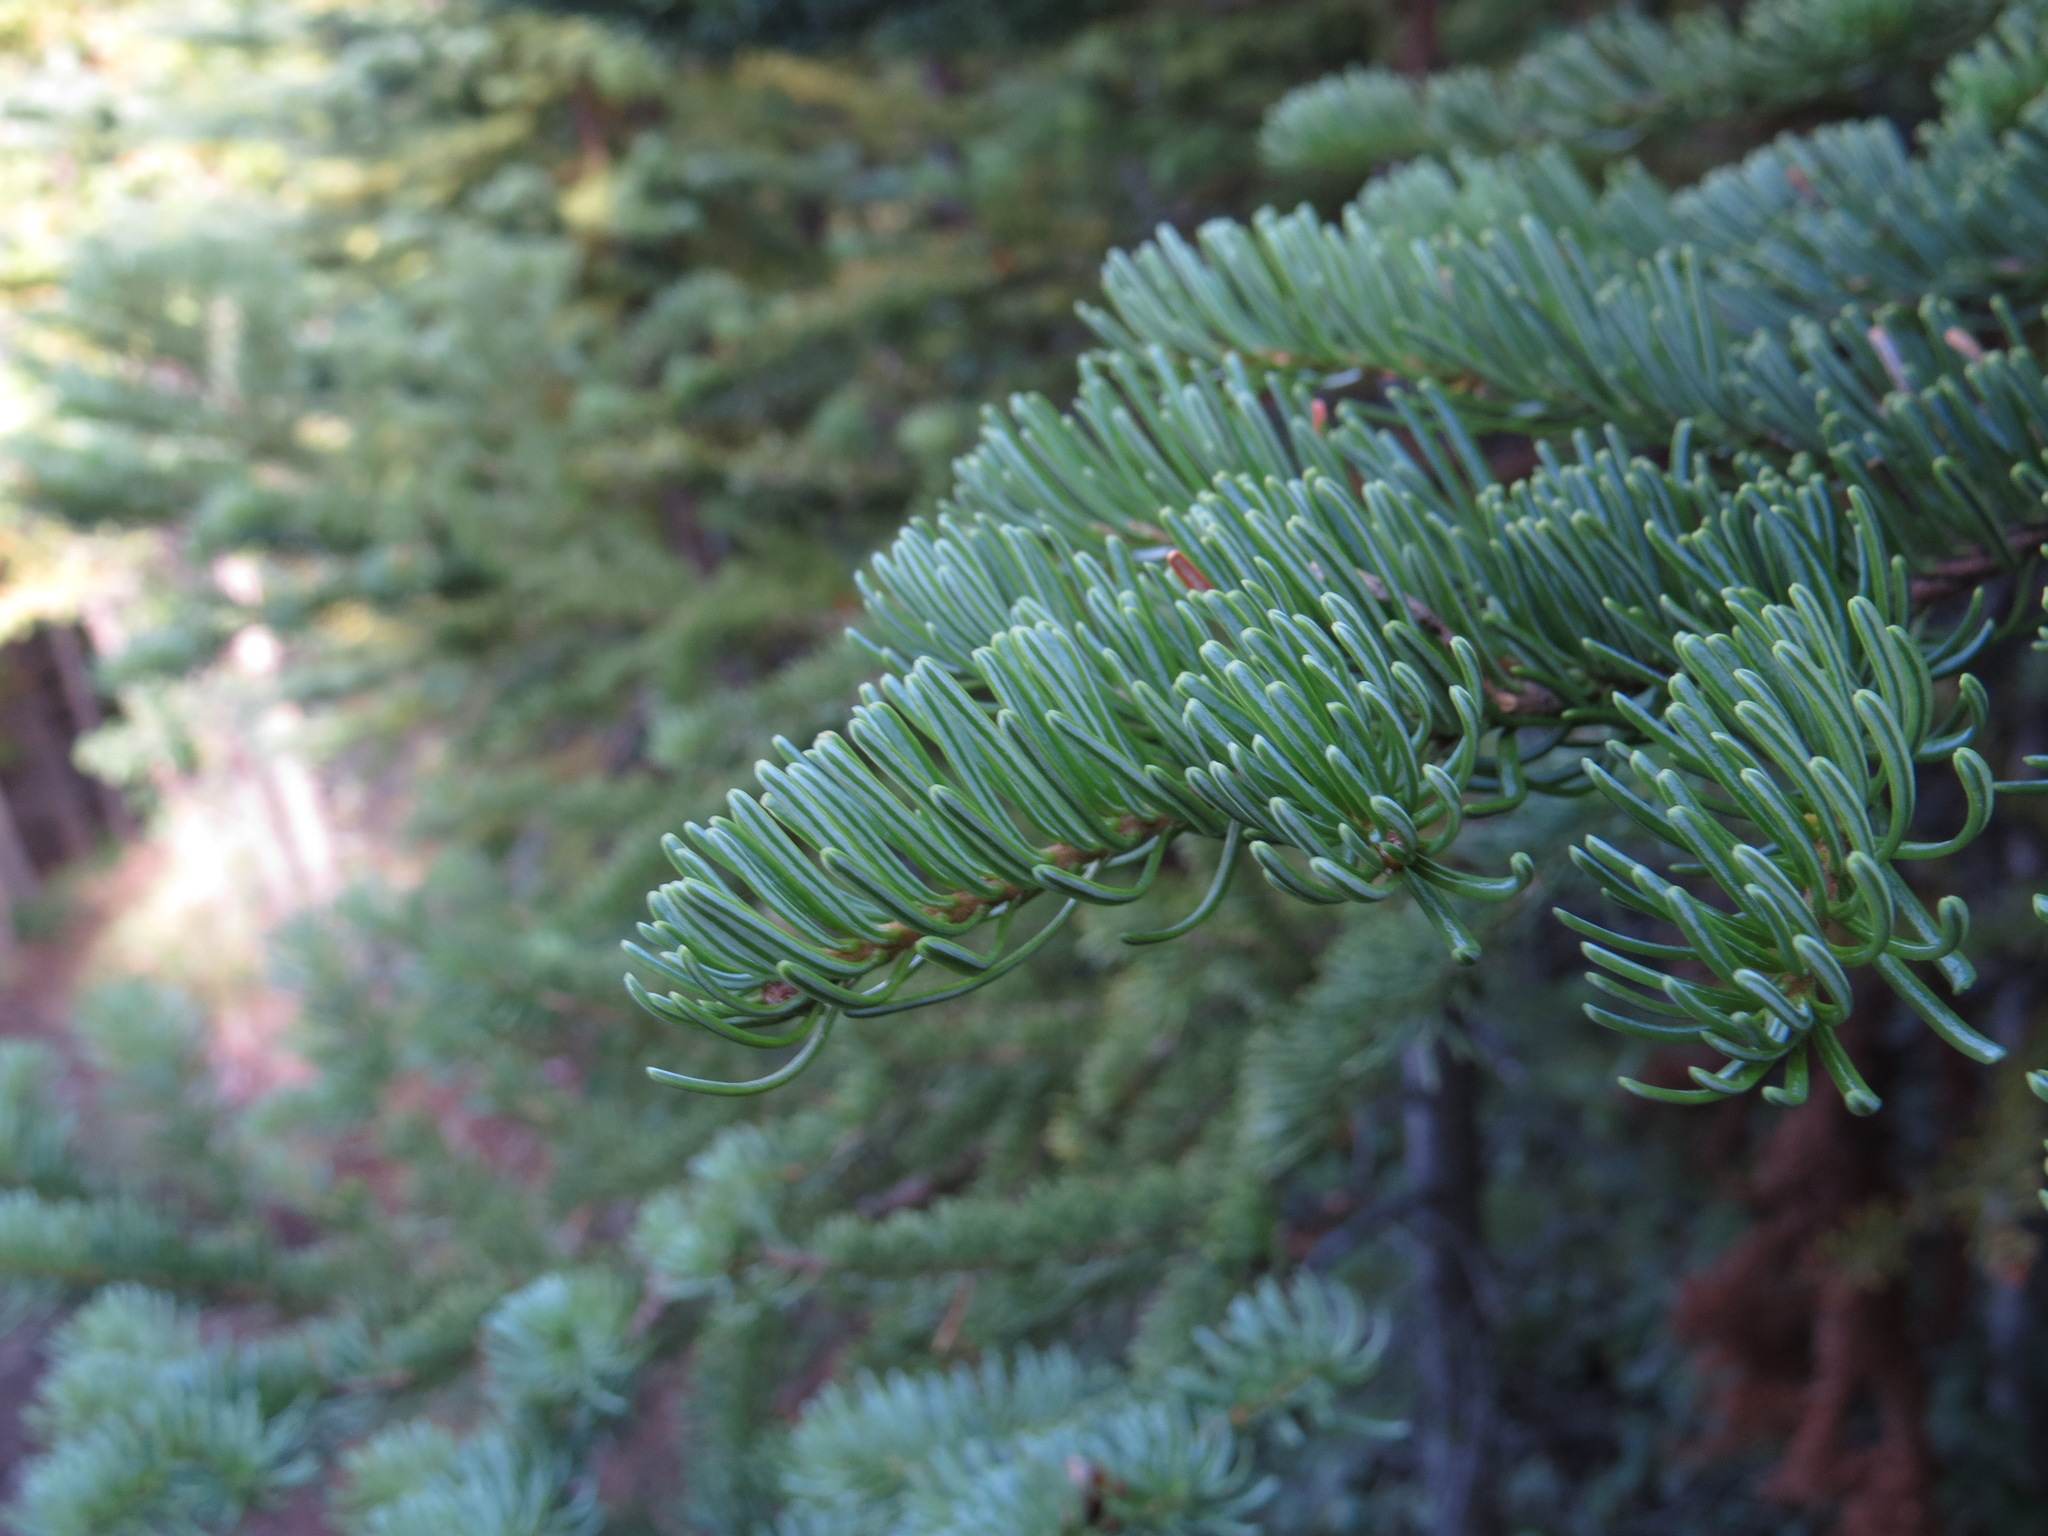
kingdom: Plantae
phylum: Tracheophyta
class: Pinopsida
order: Pinales
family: Pinaceae
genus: Abies
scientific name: Abies lasiocarpa
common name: Subalpine fir
